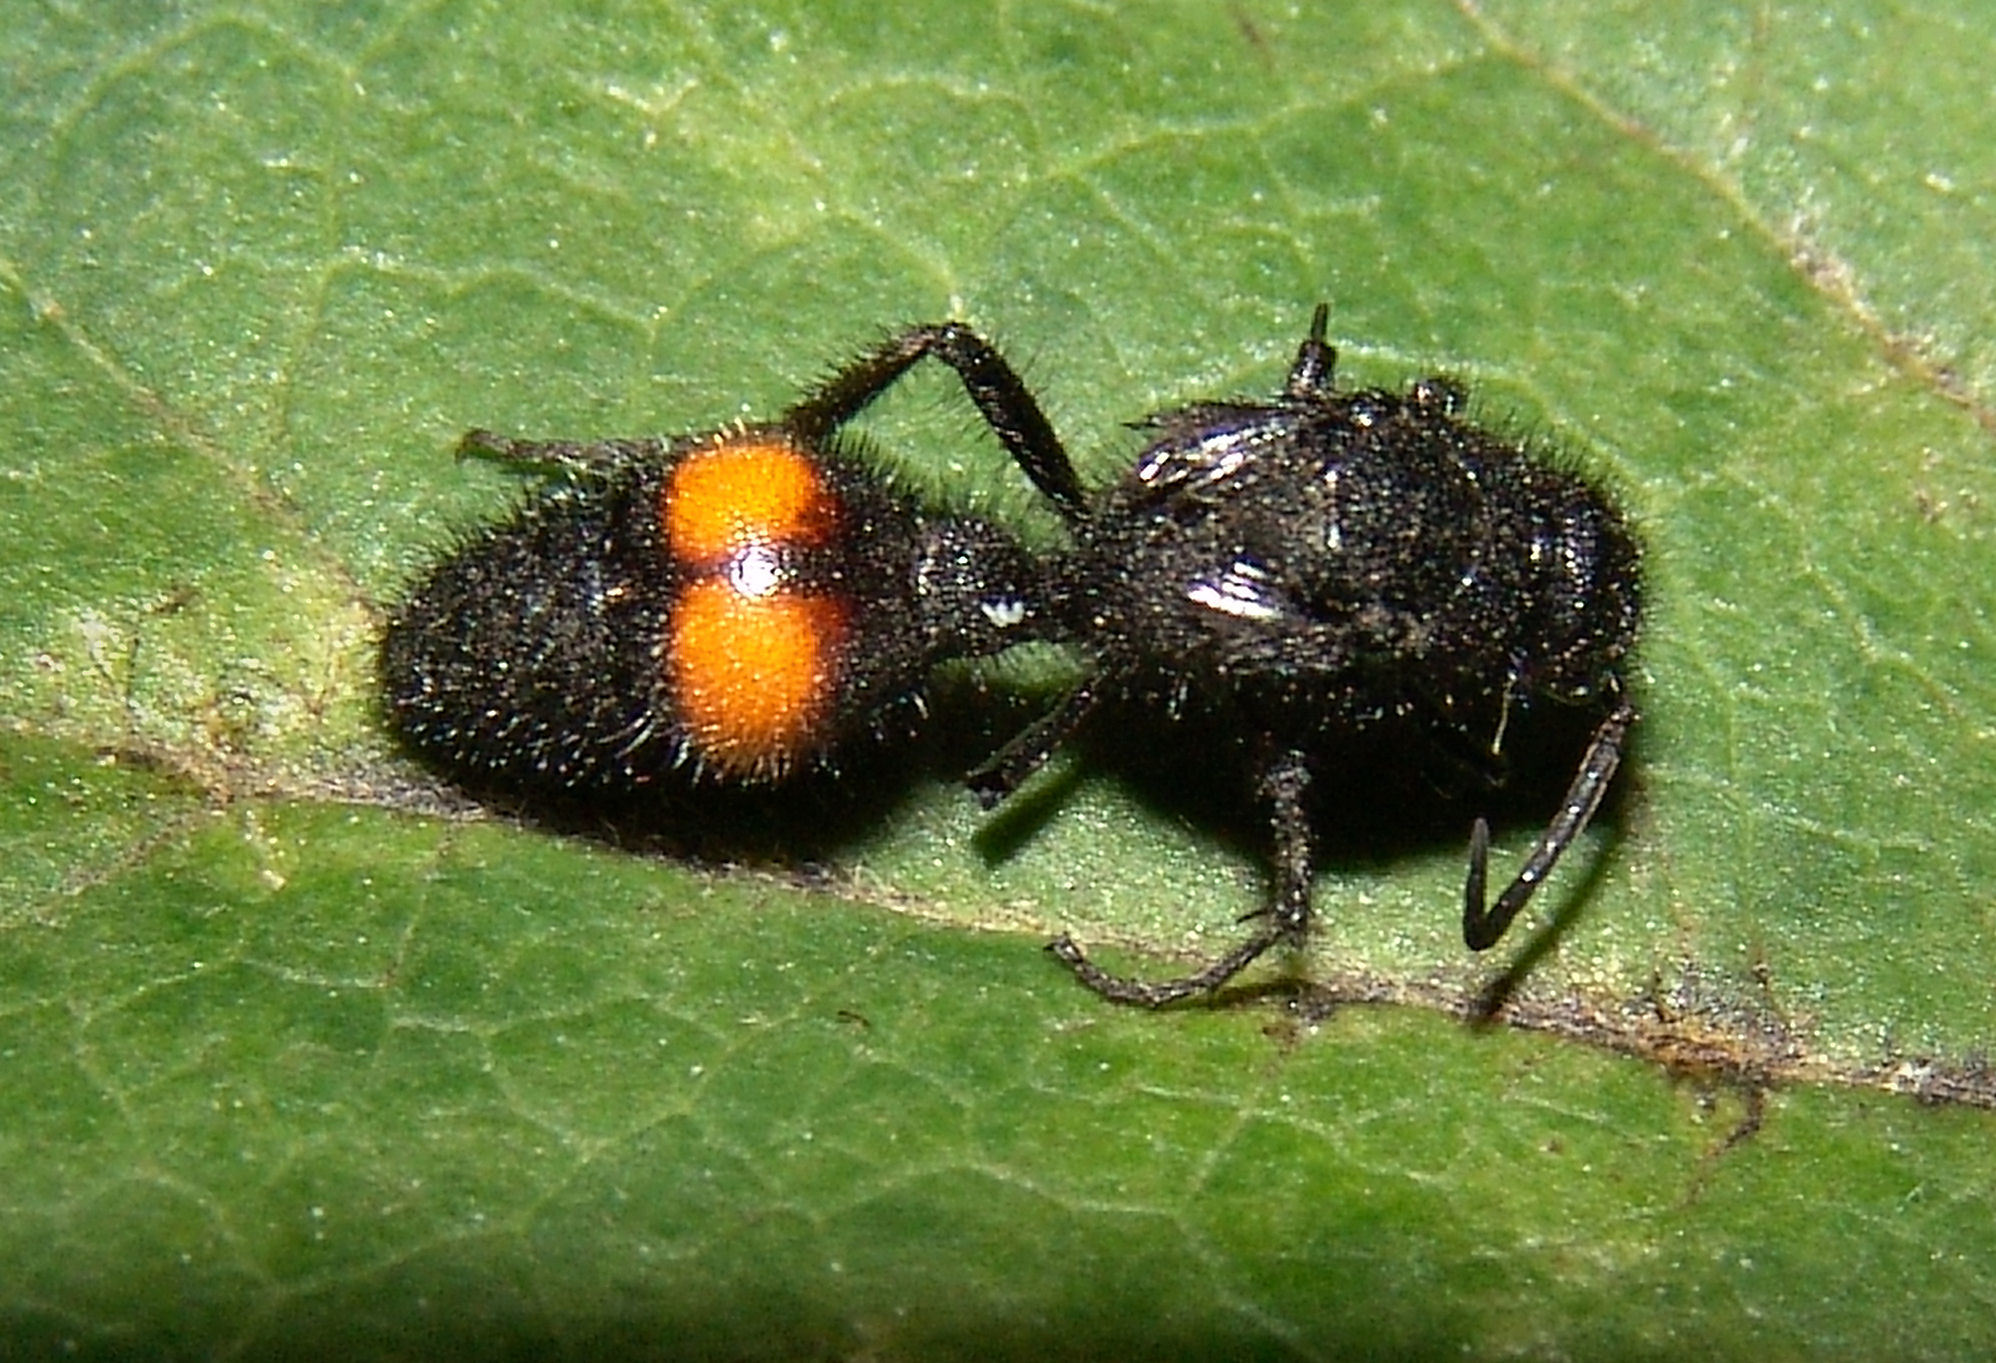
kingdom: Animalia
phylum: Arthropoda
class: Insecta
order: Hymenoptera
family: Mutillidae
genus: Dasymutilla
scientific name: Dasymutilla
